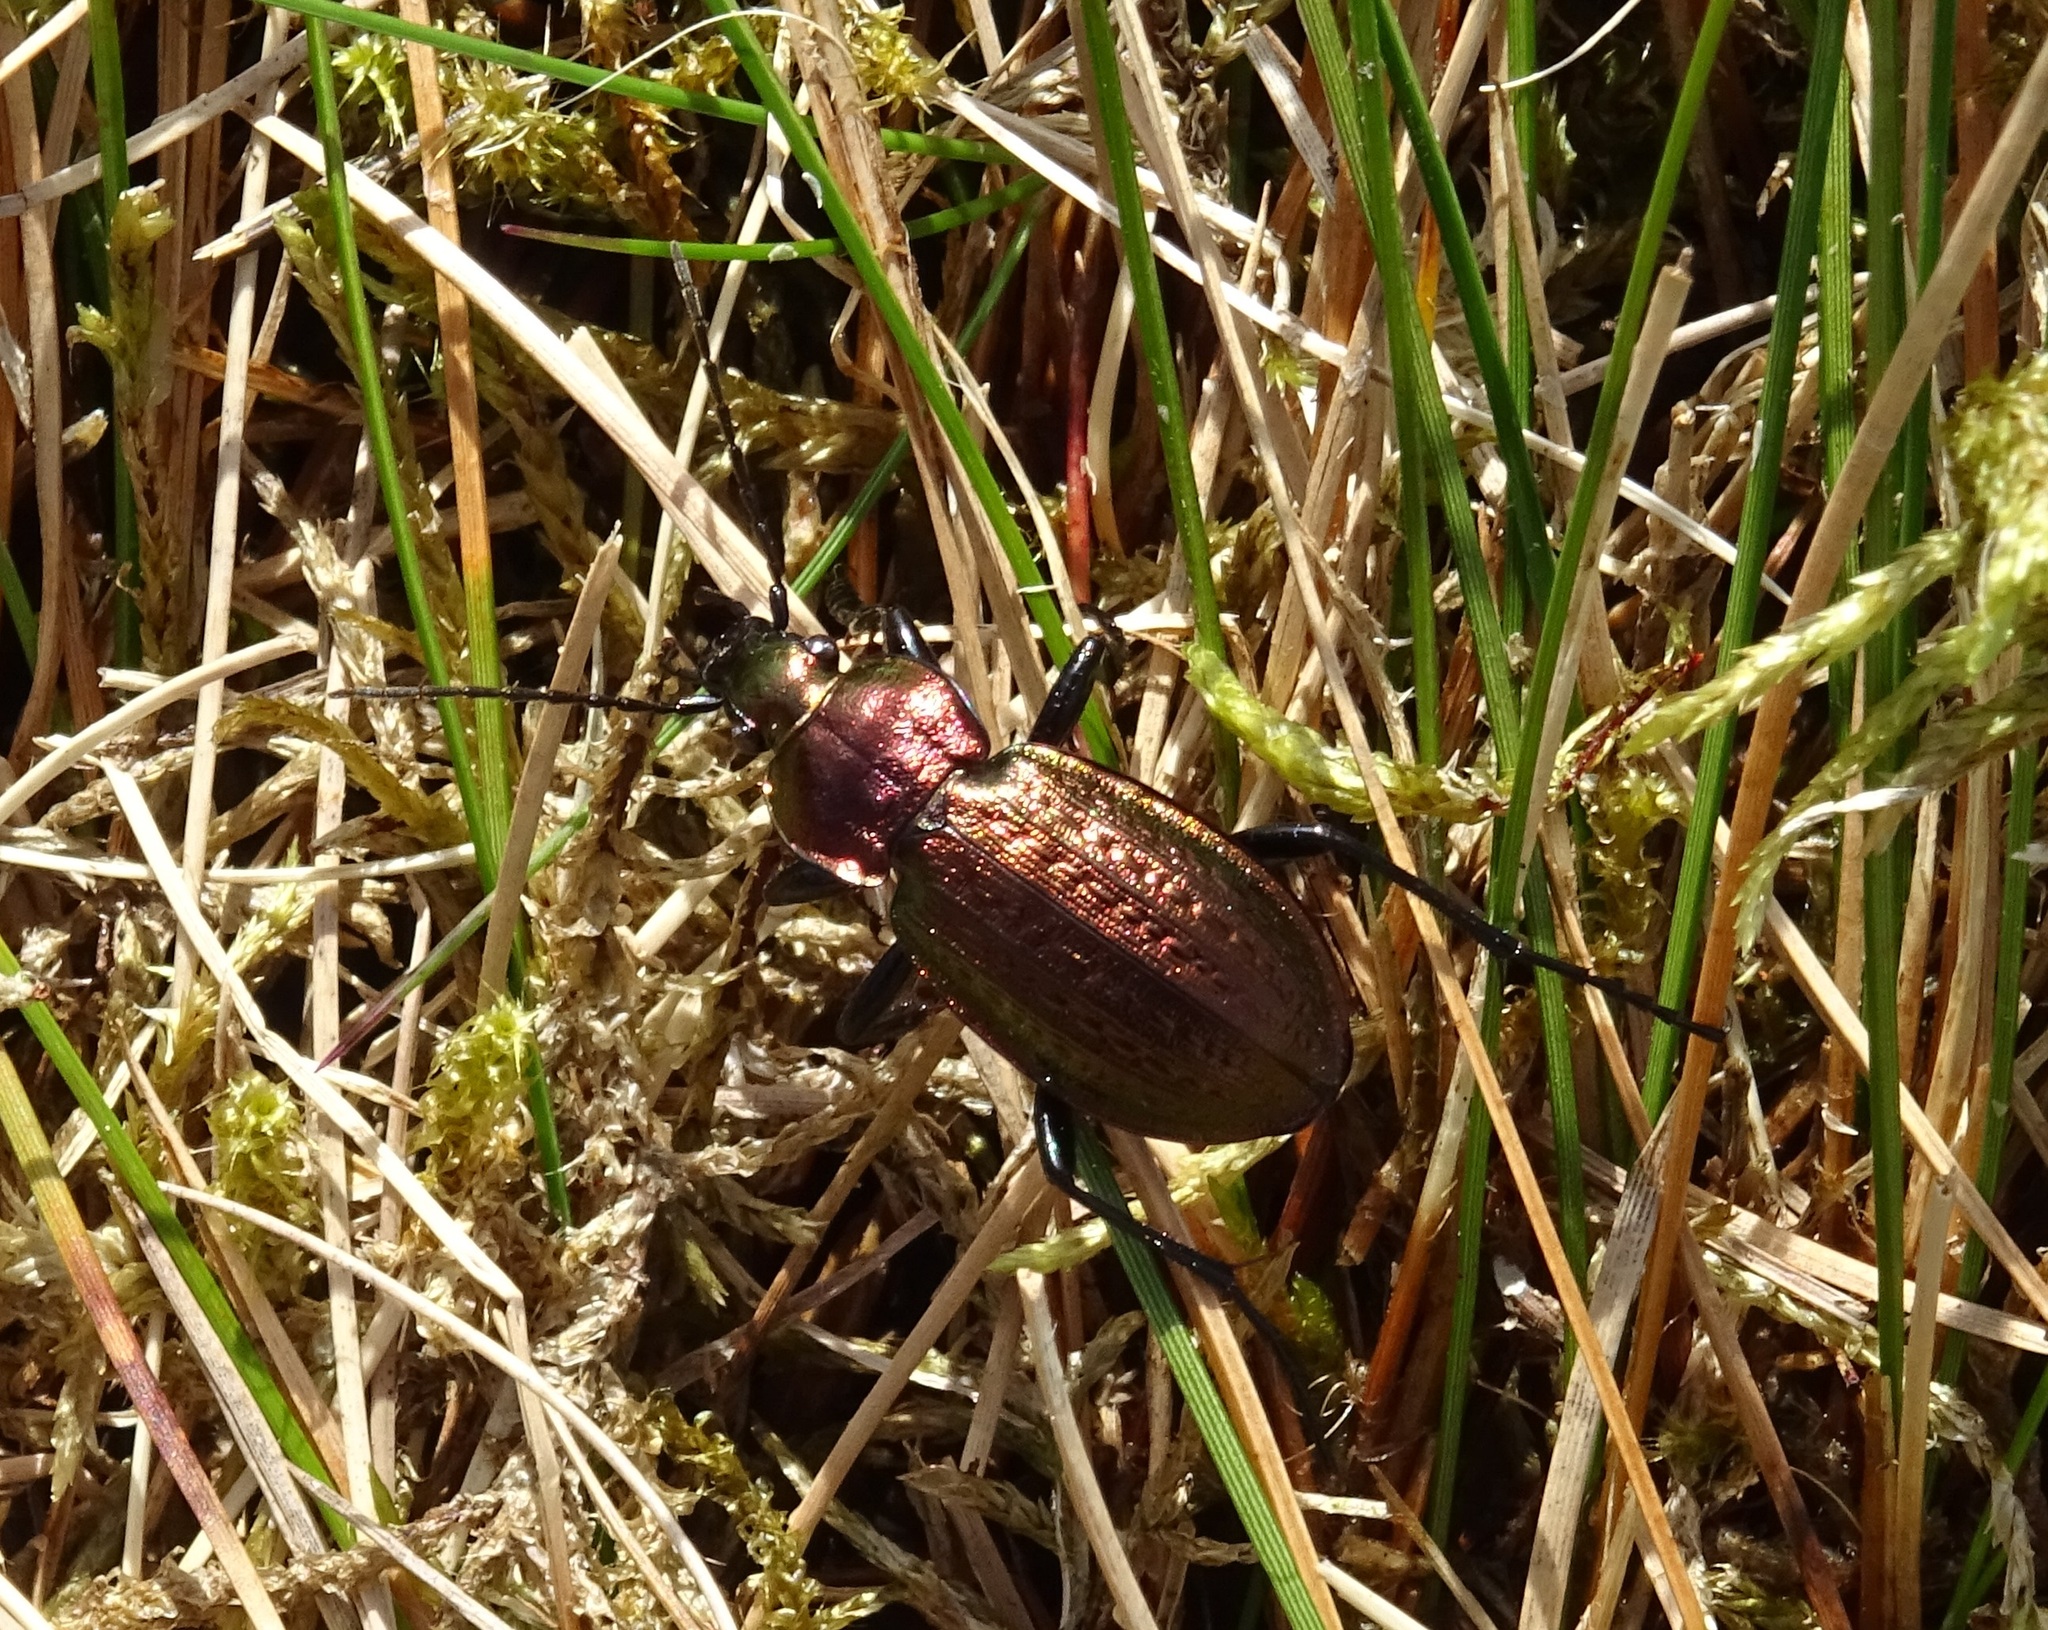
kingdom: Animalia
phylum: Arthropoda
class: Insecta
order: Coleoptera
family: Carabidae
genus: Carabus
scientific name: Carabus arvensis
